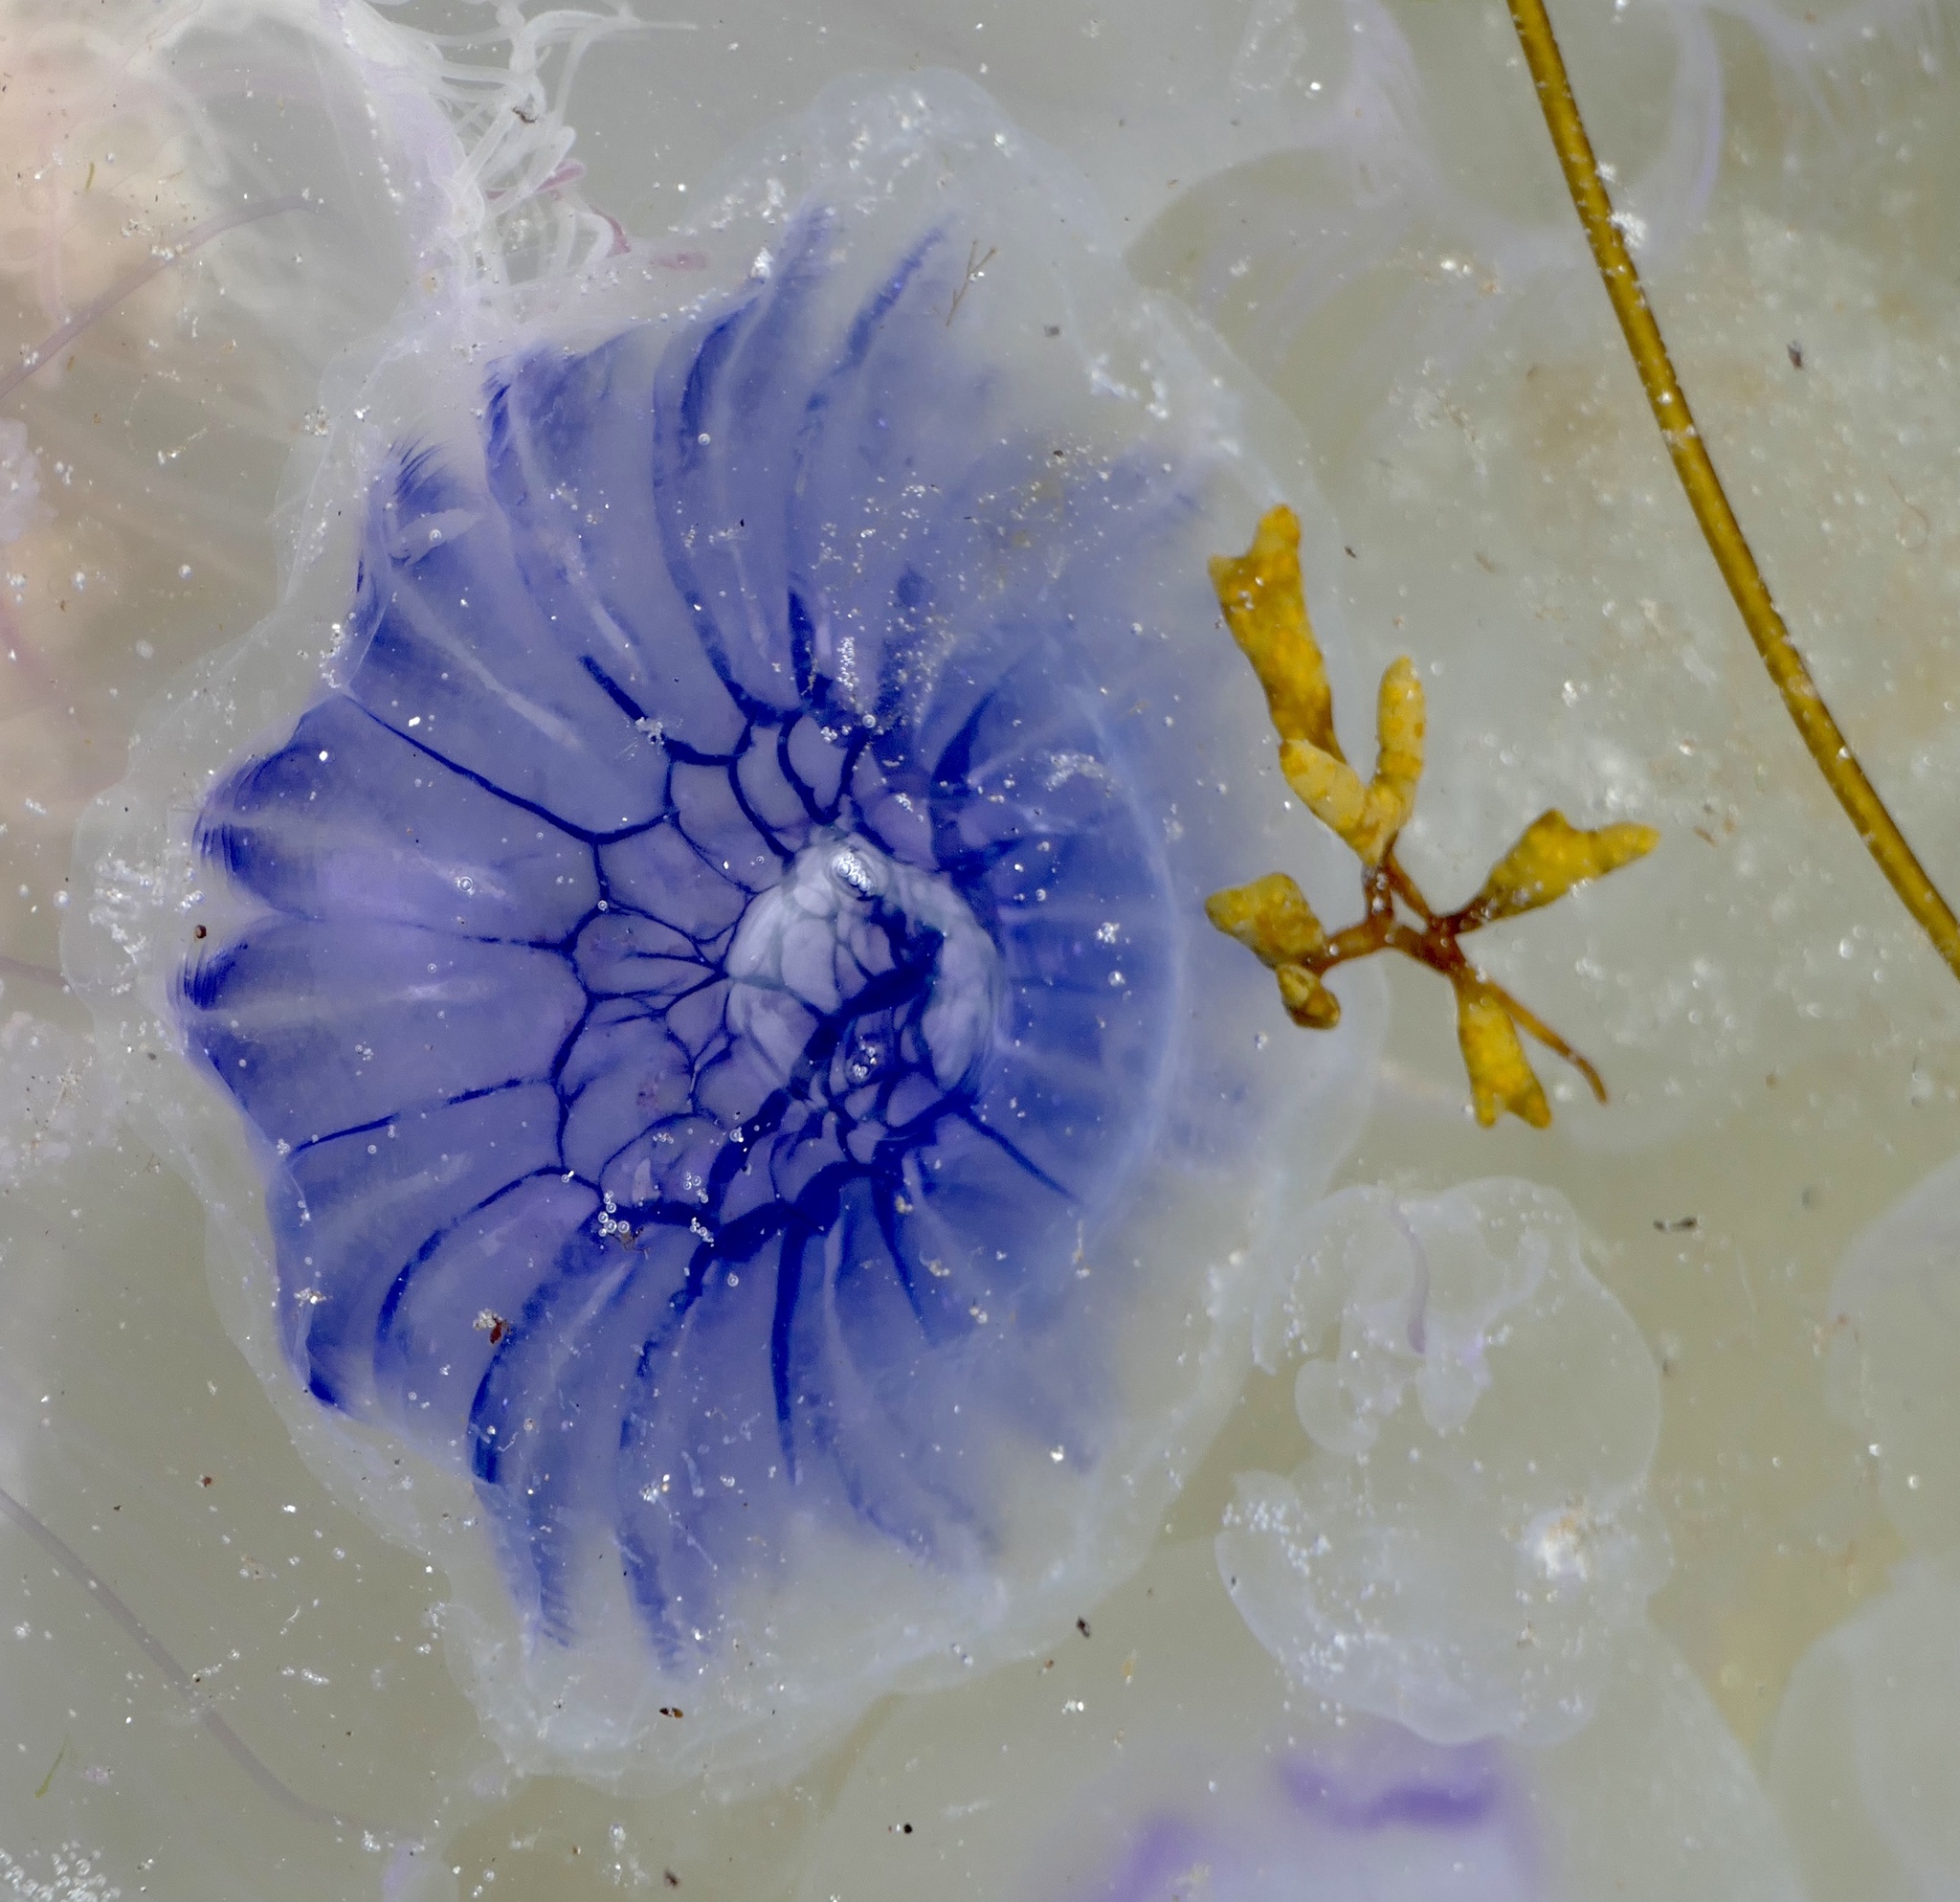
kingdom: Animalia
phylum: Cnidaria
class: Scyphozoa
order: Semaeostomeae
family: Cyaneidae
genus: Cyanea
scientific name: Cyanea lamarckii
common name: Blue jellyfish
